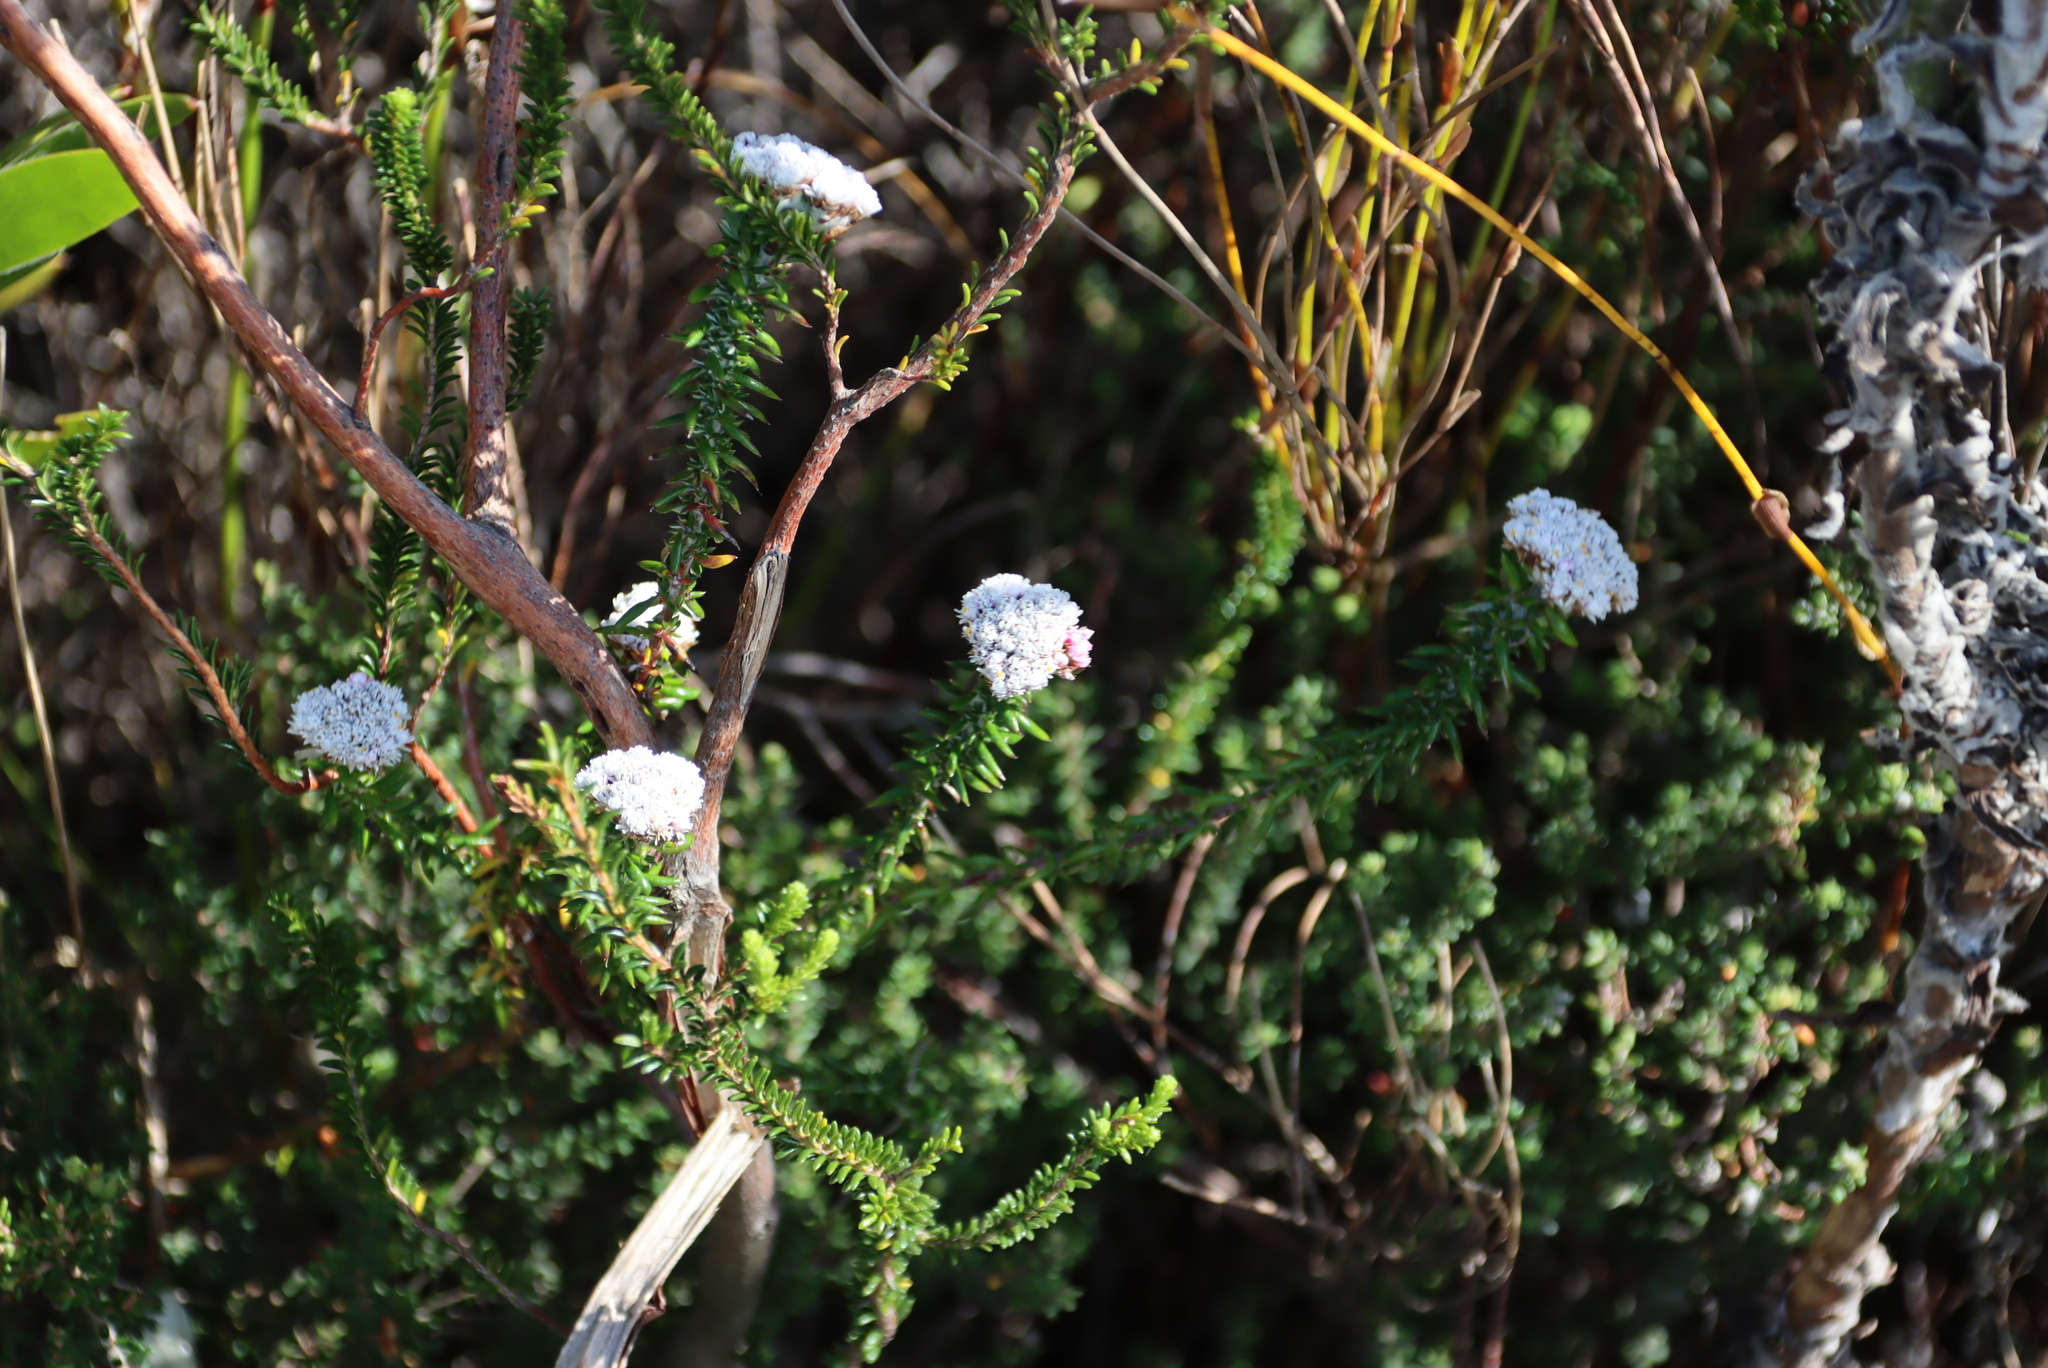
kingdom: Plantae
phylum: Tracheophyta
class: Magnoliopsida
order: Asterales
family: Asteraceae
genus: Metalasia
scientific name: Metalasia divergens
